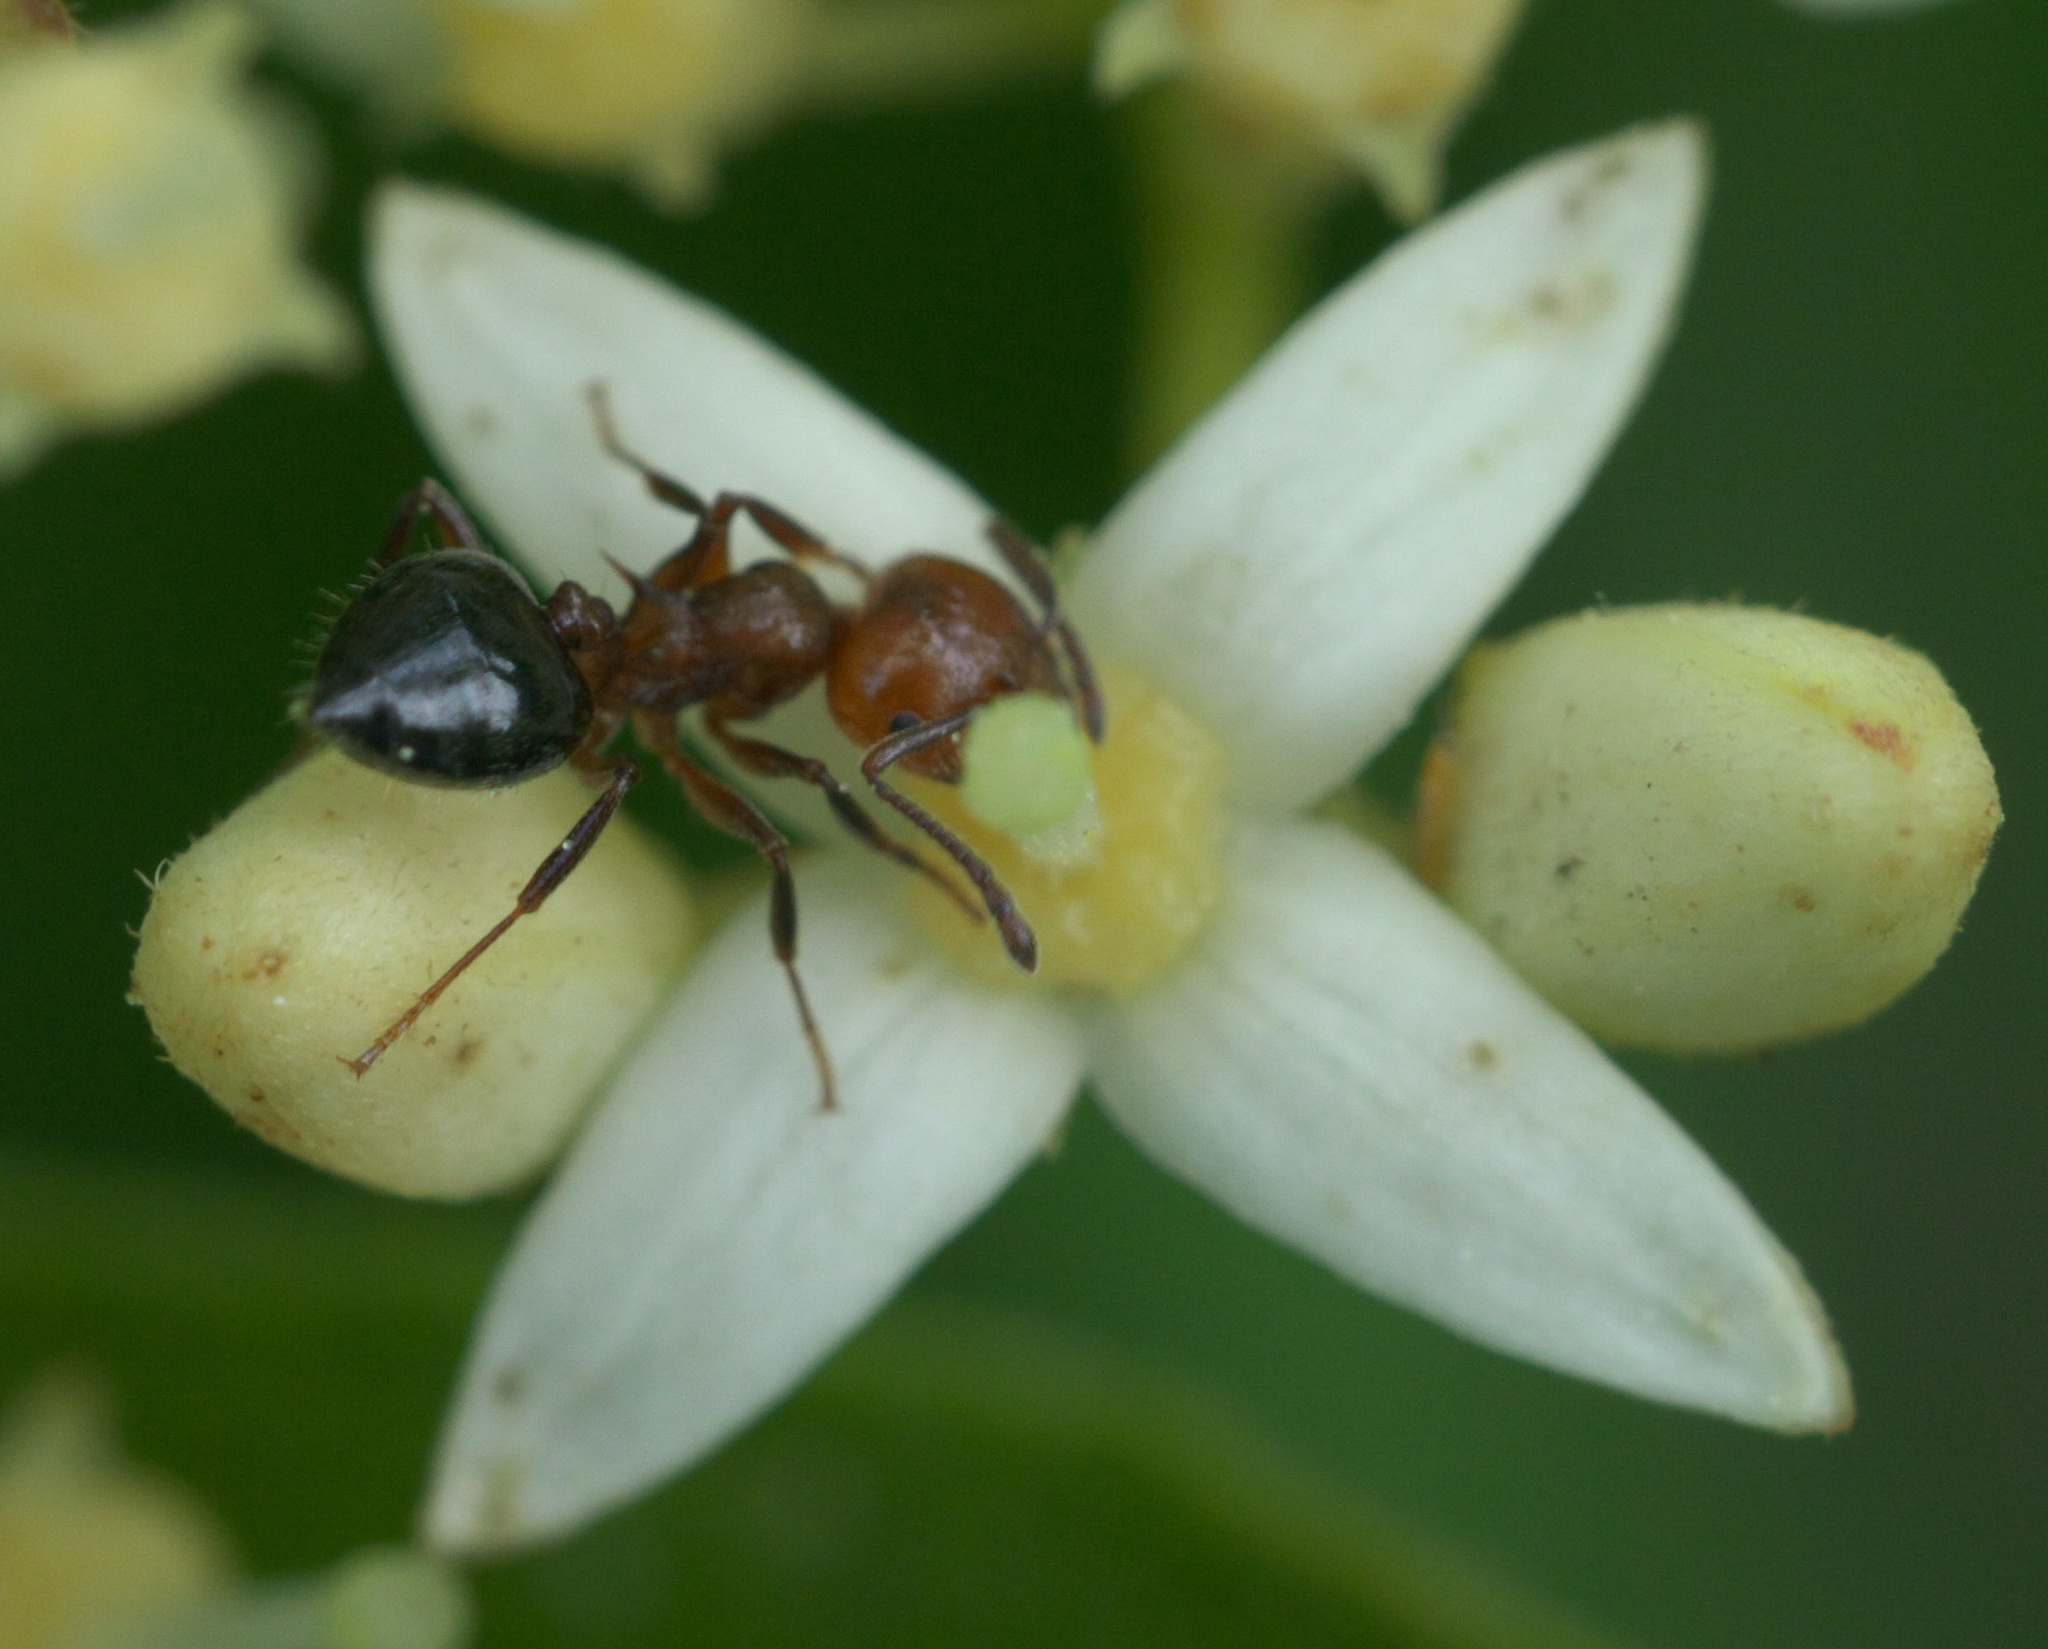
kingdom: Animalia
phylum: Arthropoda
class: Insecta
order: Hymenoptera
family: Formicidae
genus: Crematogaster
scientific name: Crematogaster laeviuscula
